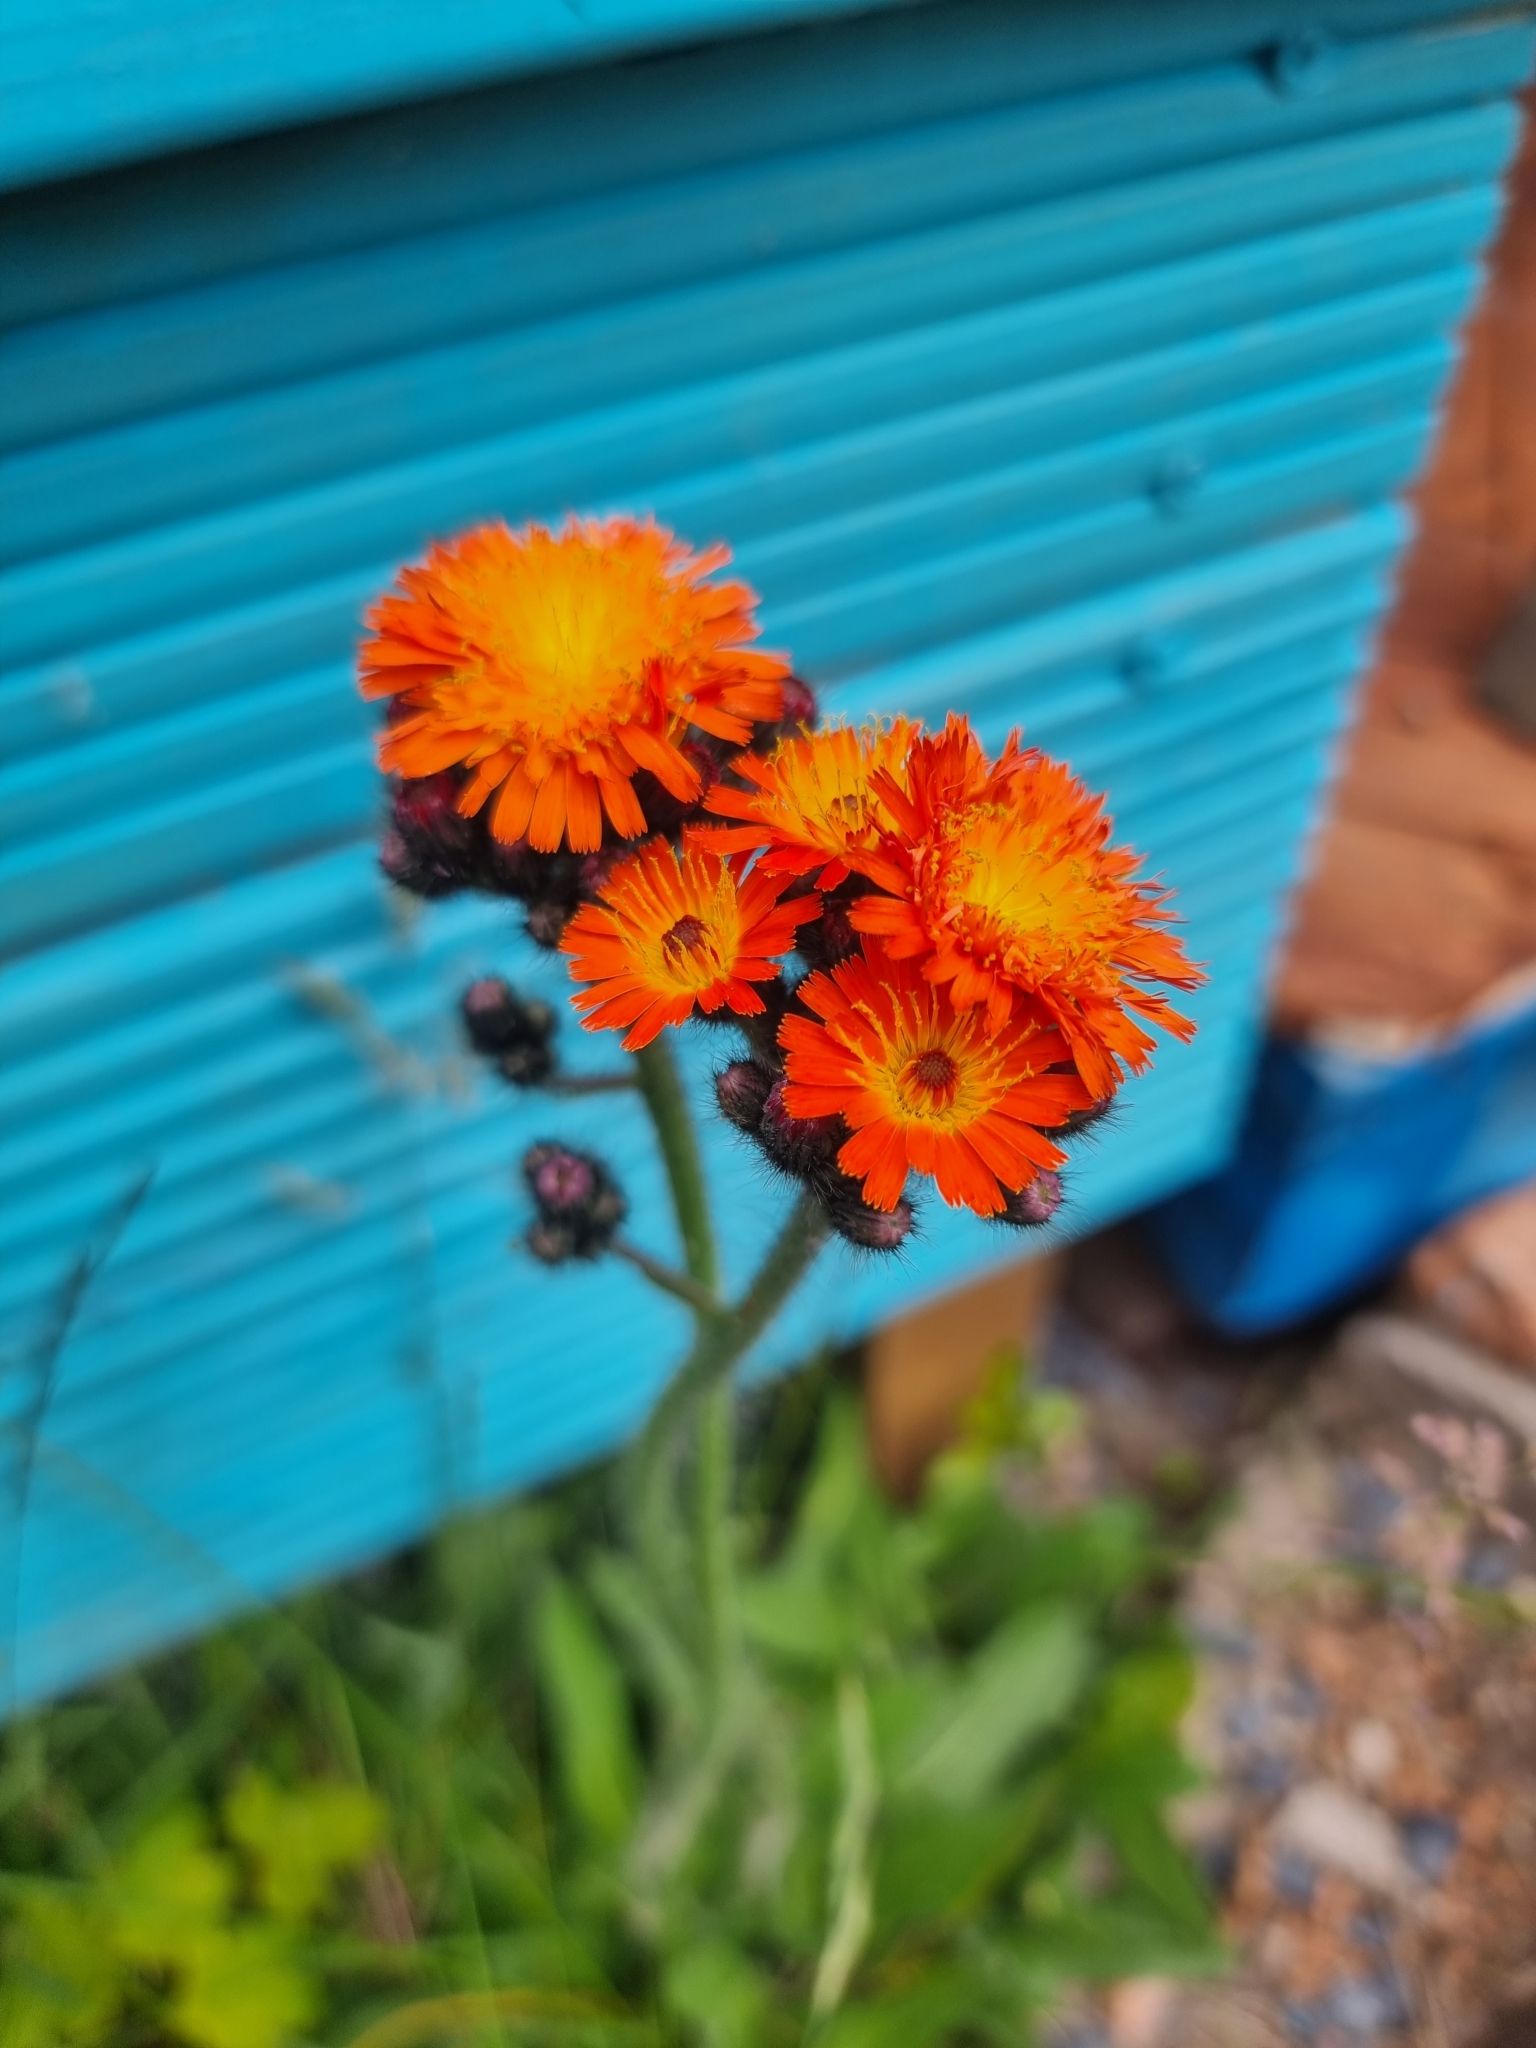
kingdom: Plantae
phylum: Tracheophyta
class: Magnoliopsida
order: Asterales
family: Asteraceae
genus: Pilosella
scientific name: Pilosella aurantiaca
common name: Fox-and-cubs
